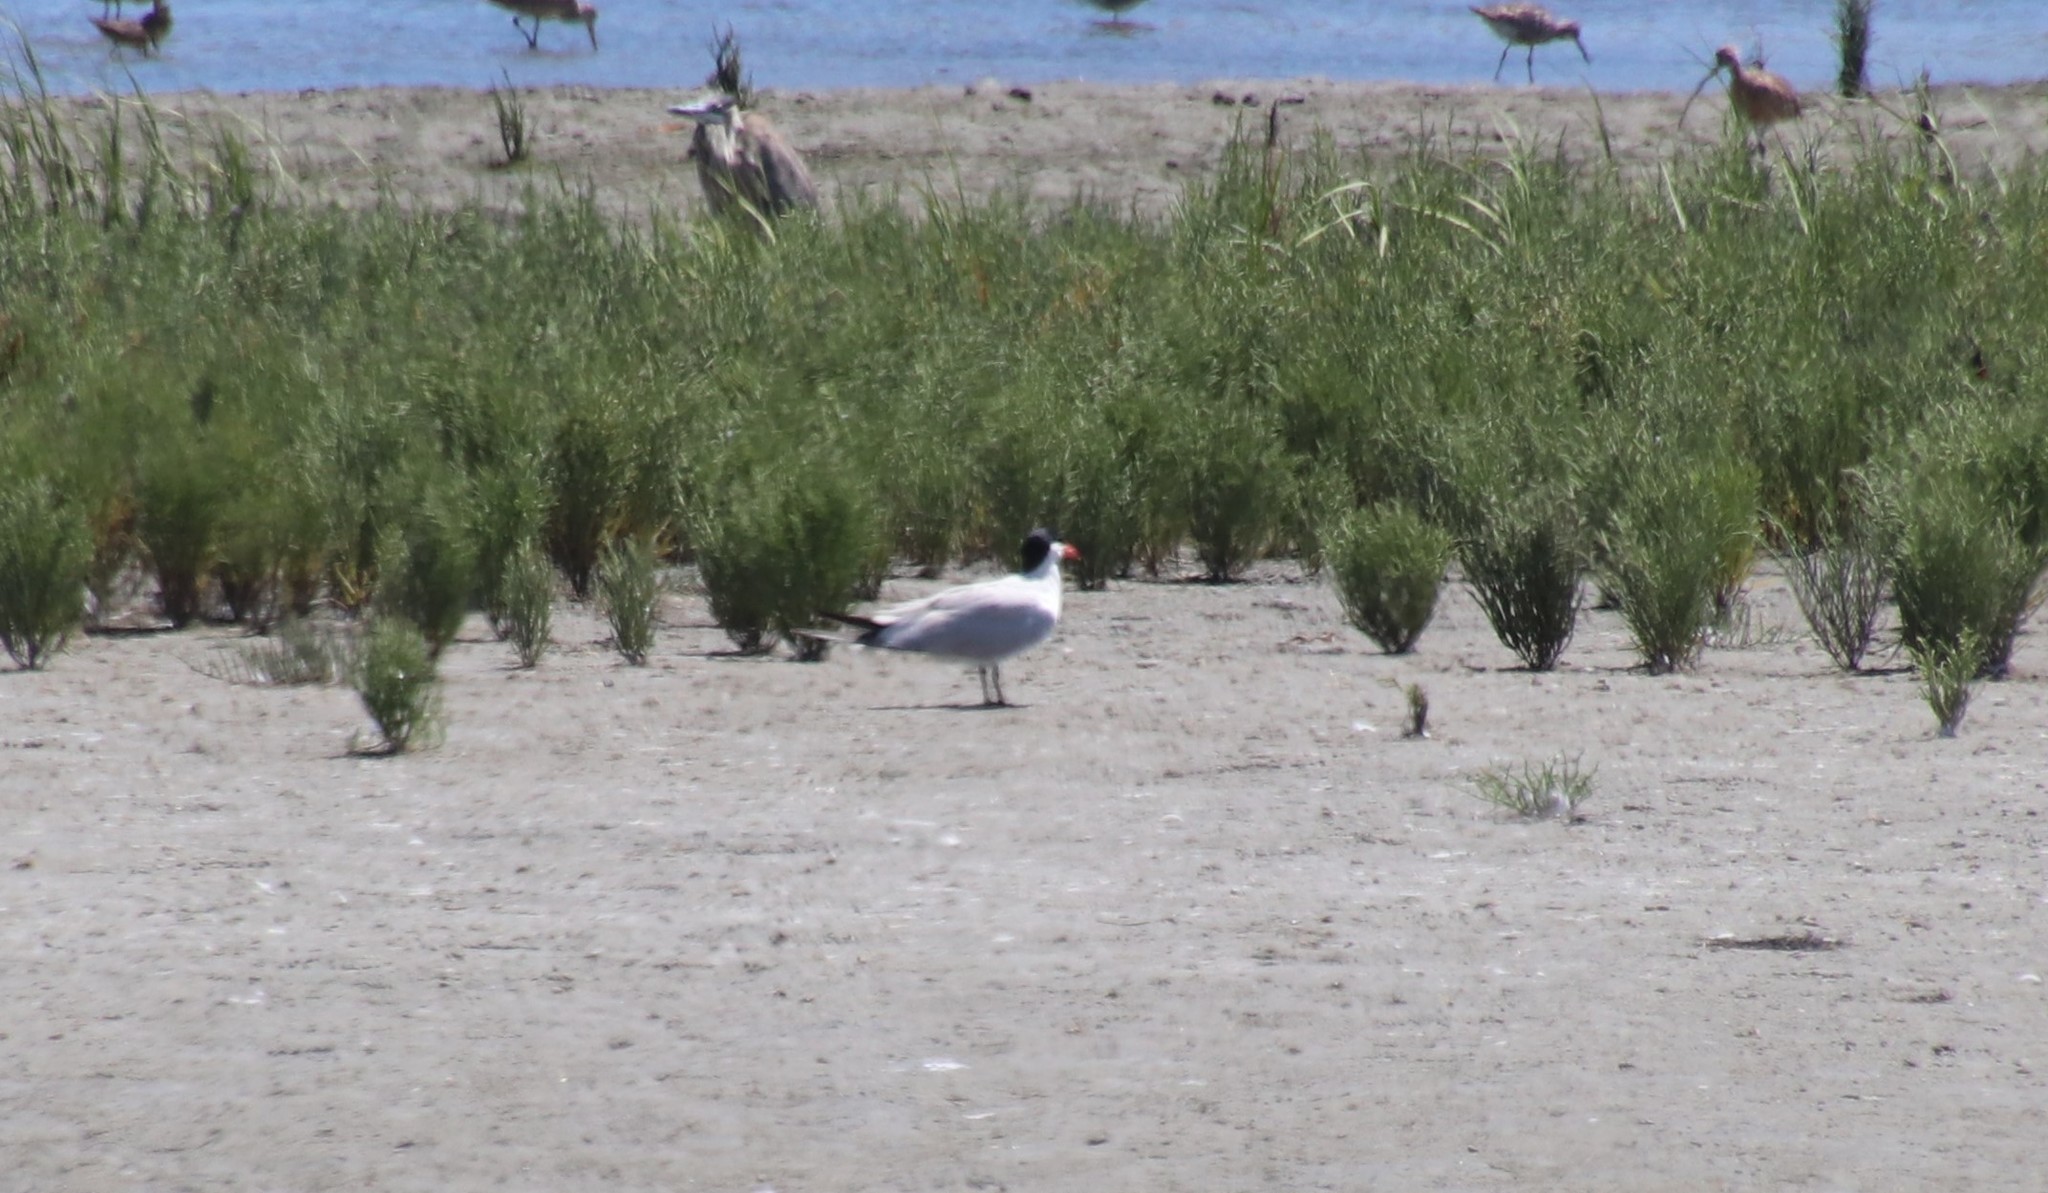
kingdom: Animalia
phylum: Chordata
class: Aves
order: Charadriiformes
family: Laridae
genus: Hydroprogne
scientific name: Hydroprogne caspia
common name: Caspian tern
